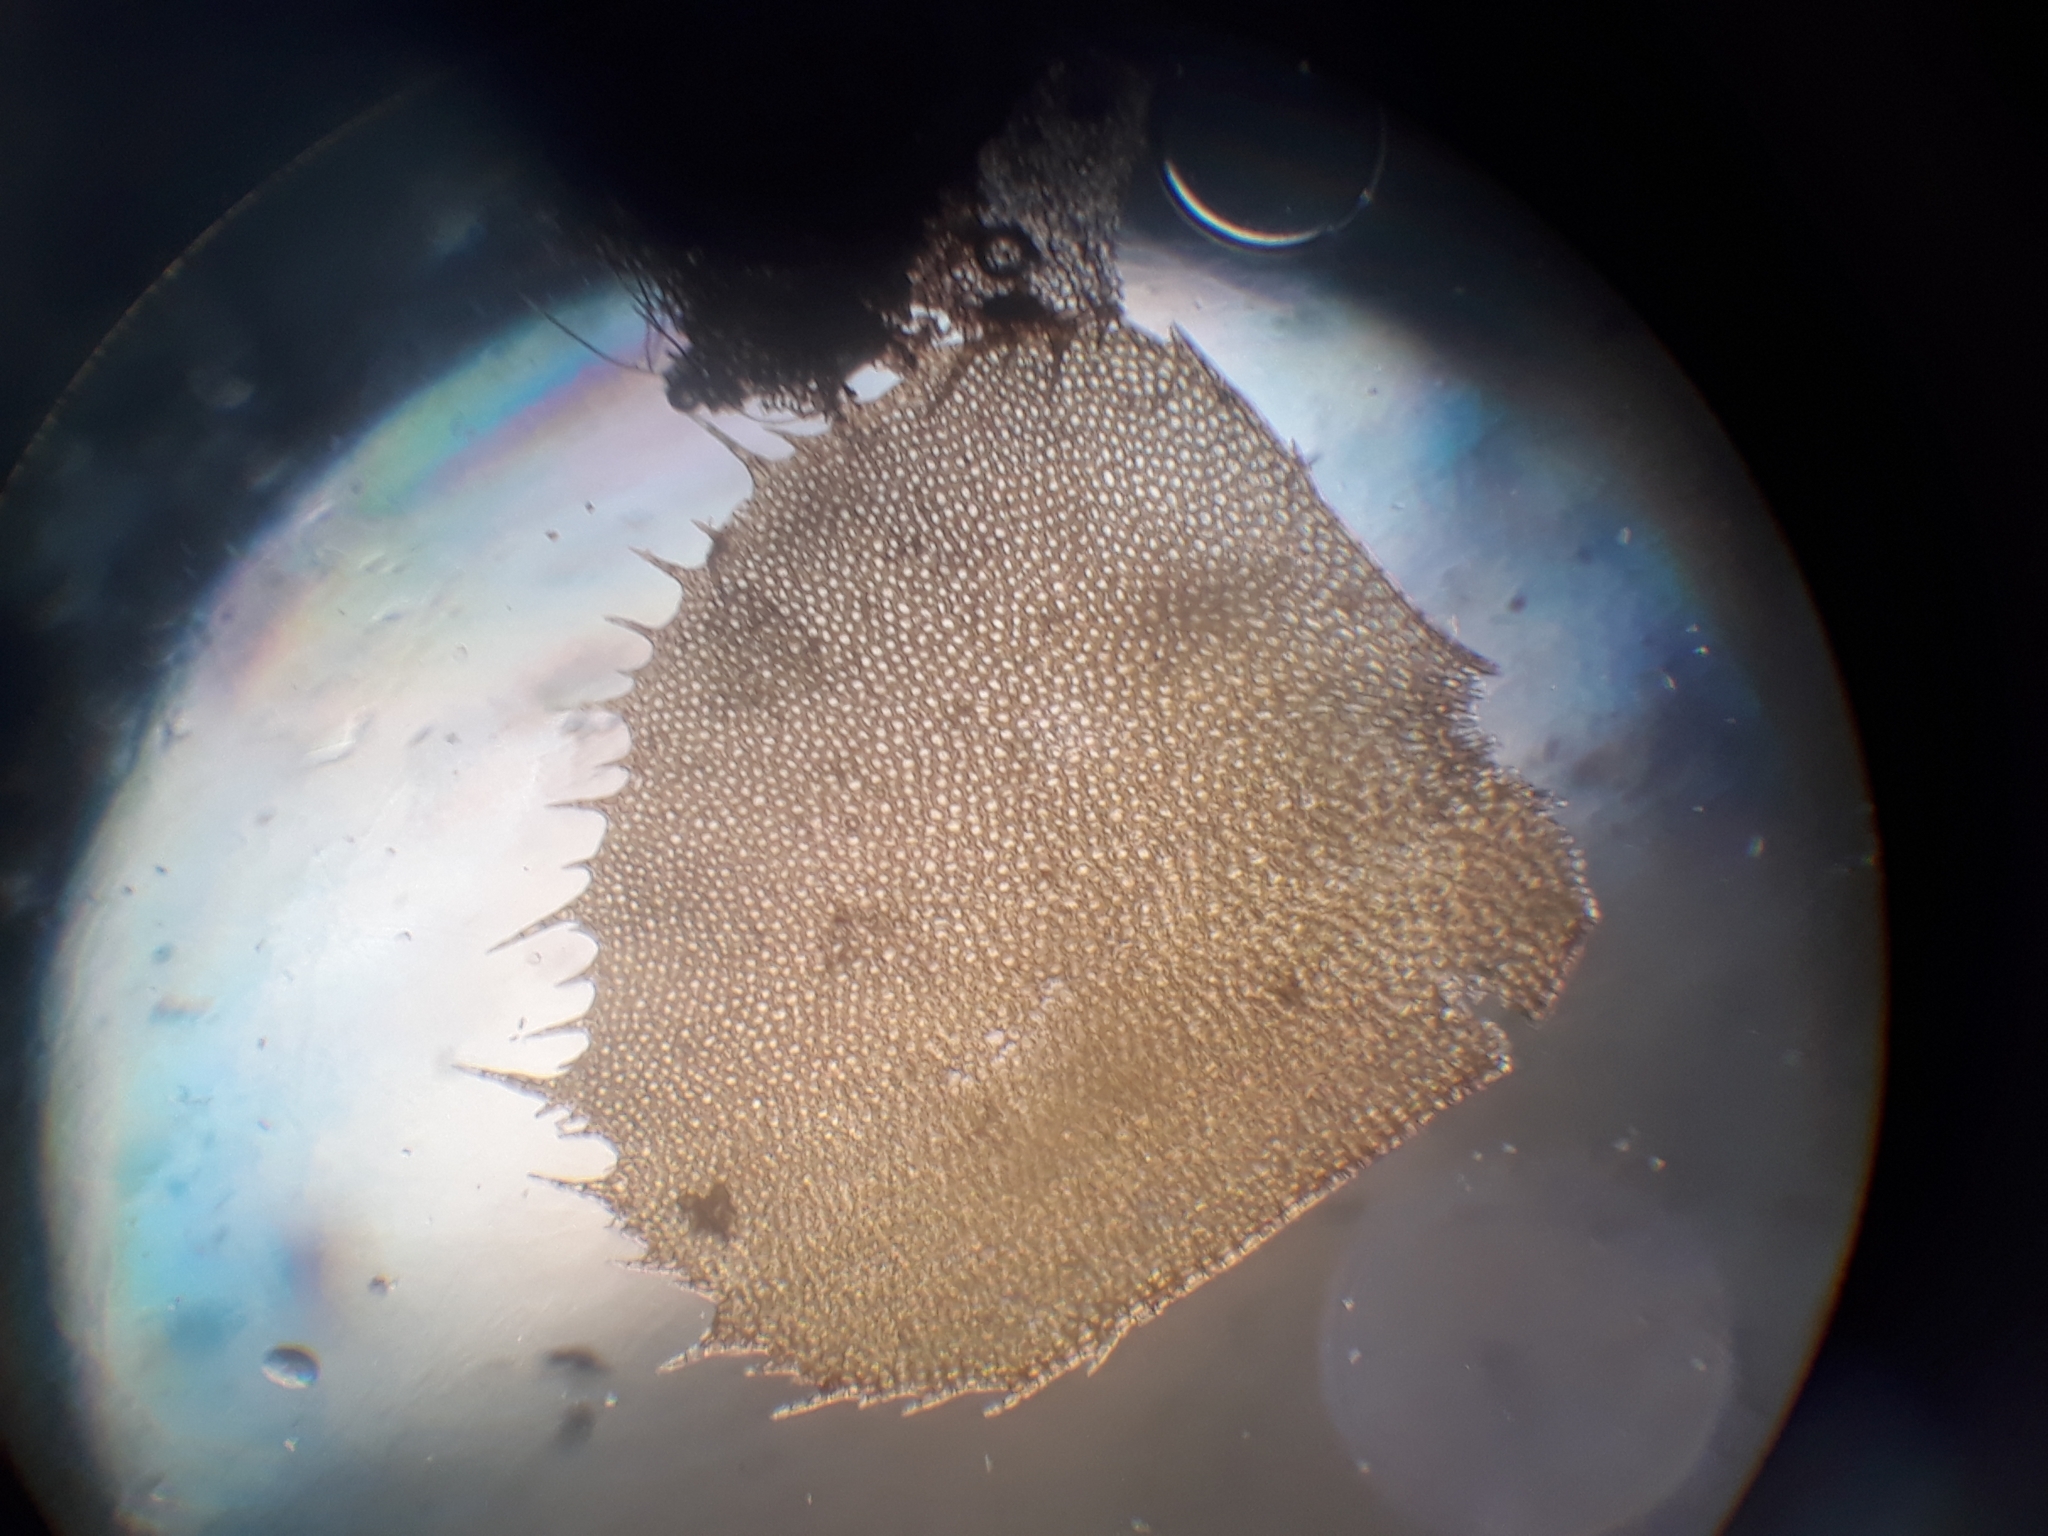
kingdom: Plantae
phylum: Marchantiophyta
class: Jungermanniopsida
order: Jungermanniales
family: Plagiochilaceae
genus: Plagiochila
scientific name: Plagiochila gigantea
